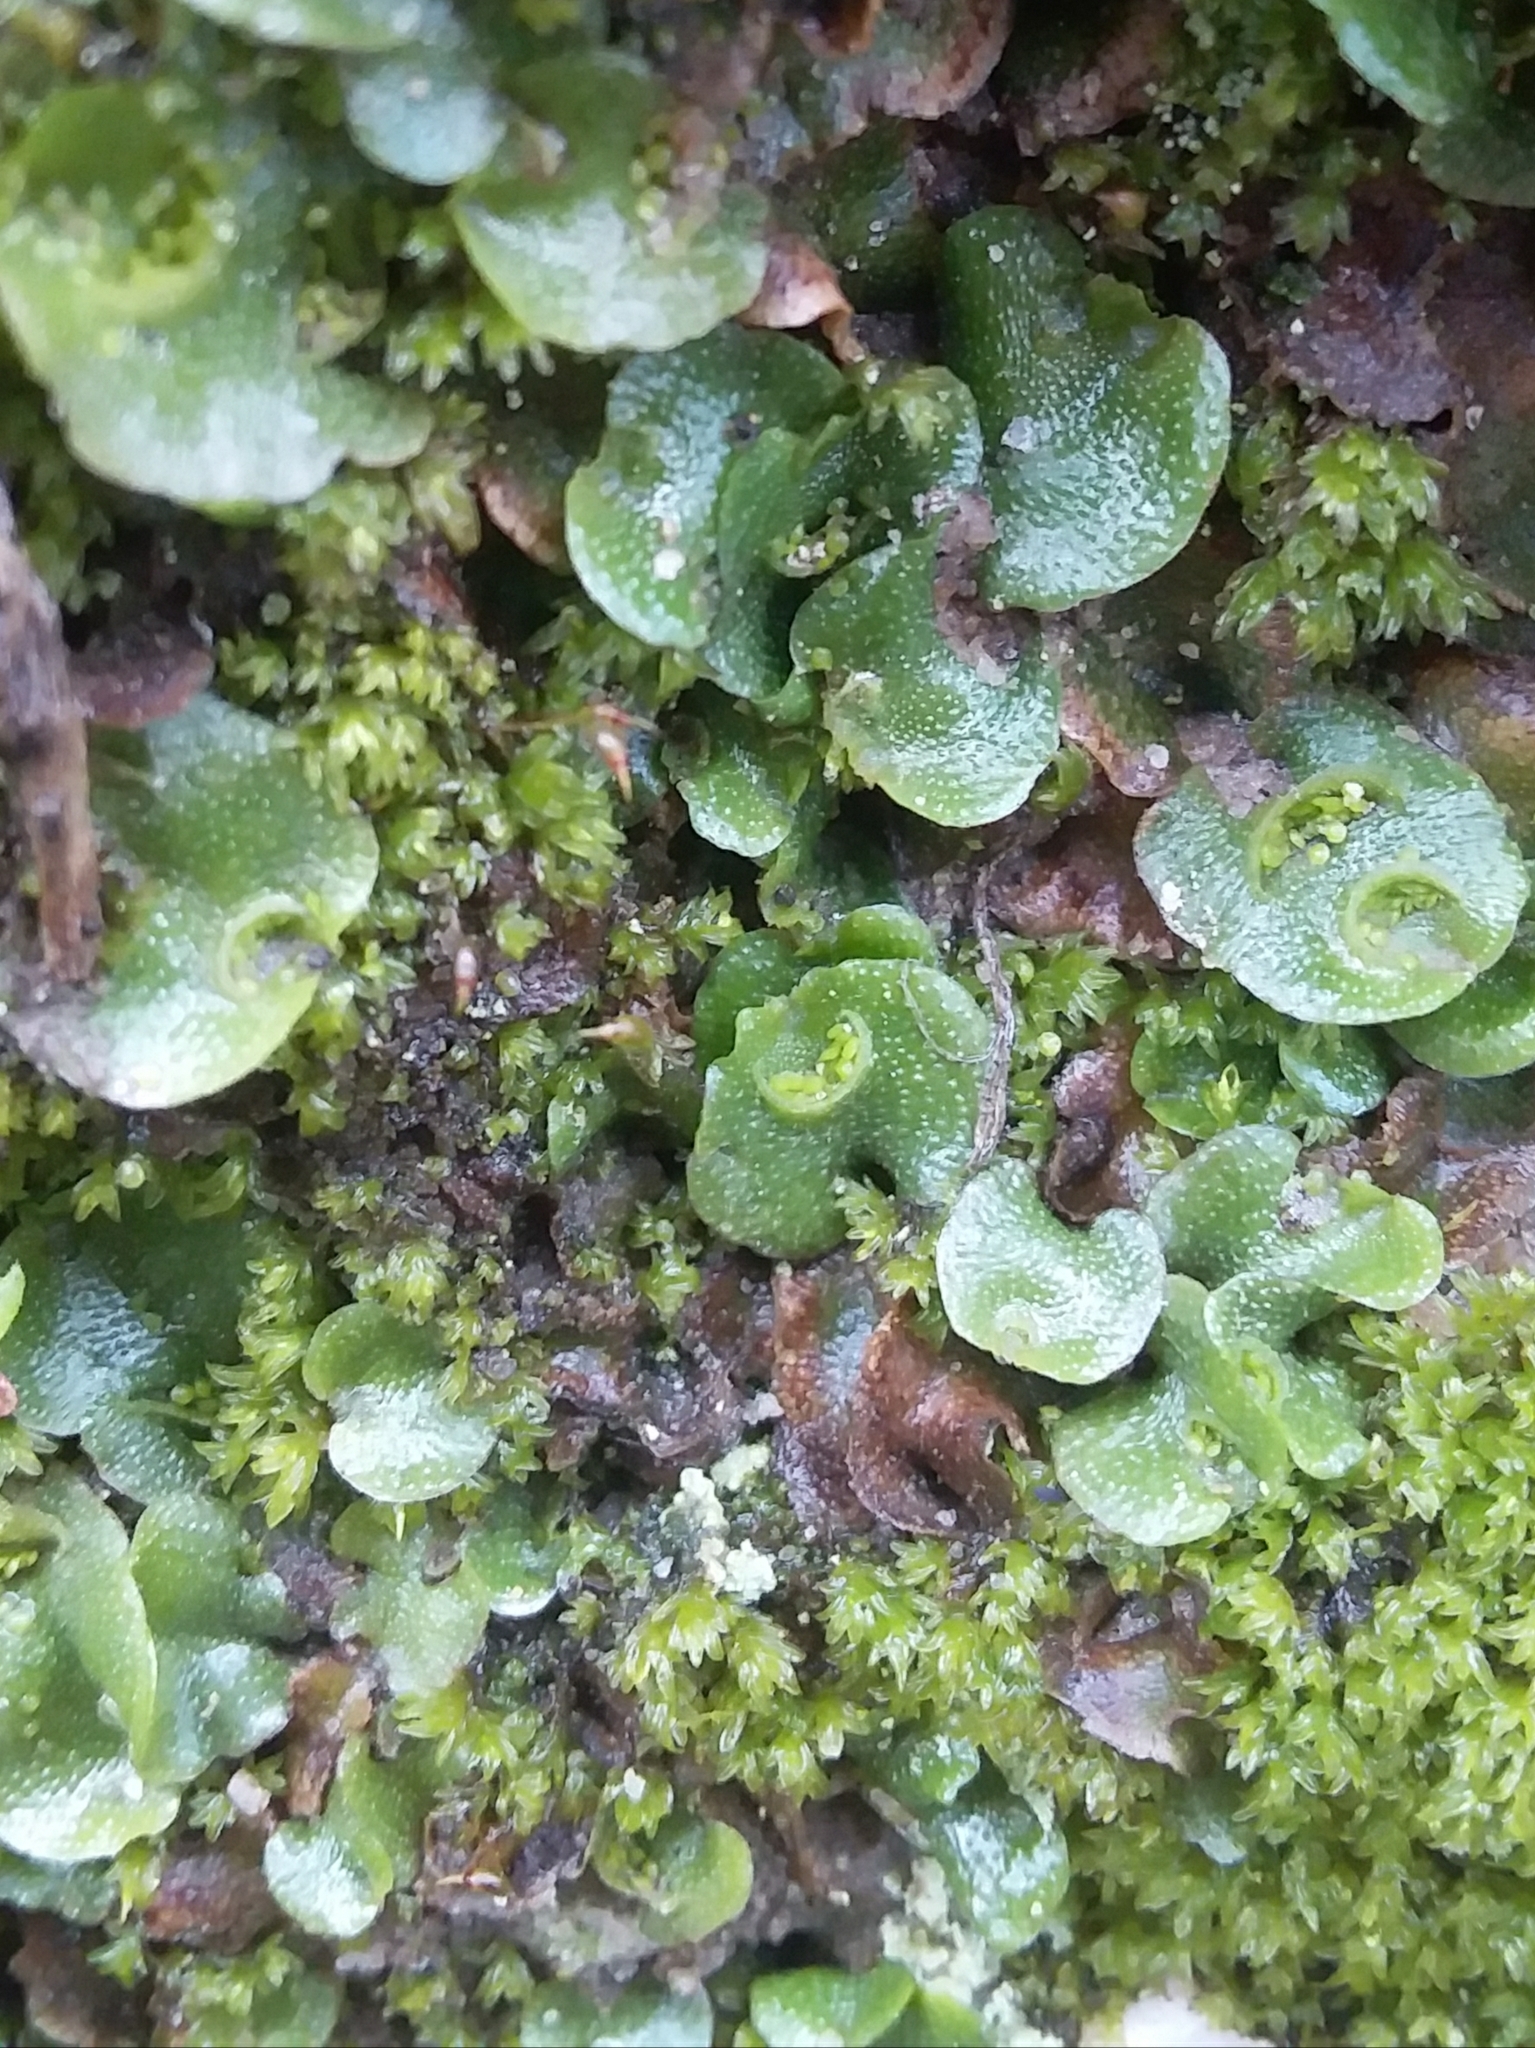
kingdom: Plantae
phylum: Marchantiophyta
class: Marchantiopsida
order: Lunulariales
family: Lunulariaceae
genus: Lunularia
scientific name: Lunularia cruciata
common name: Crescent-cup liverwort
